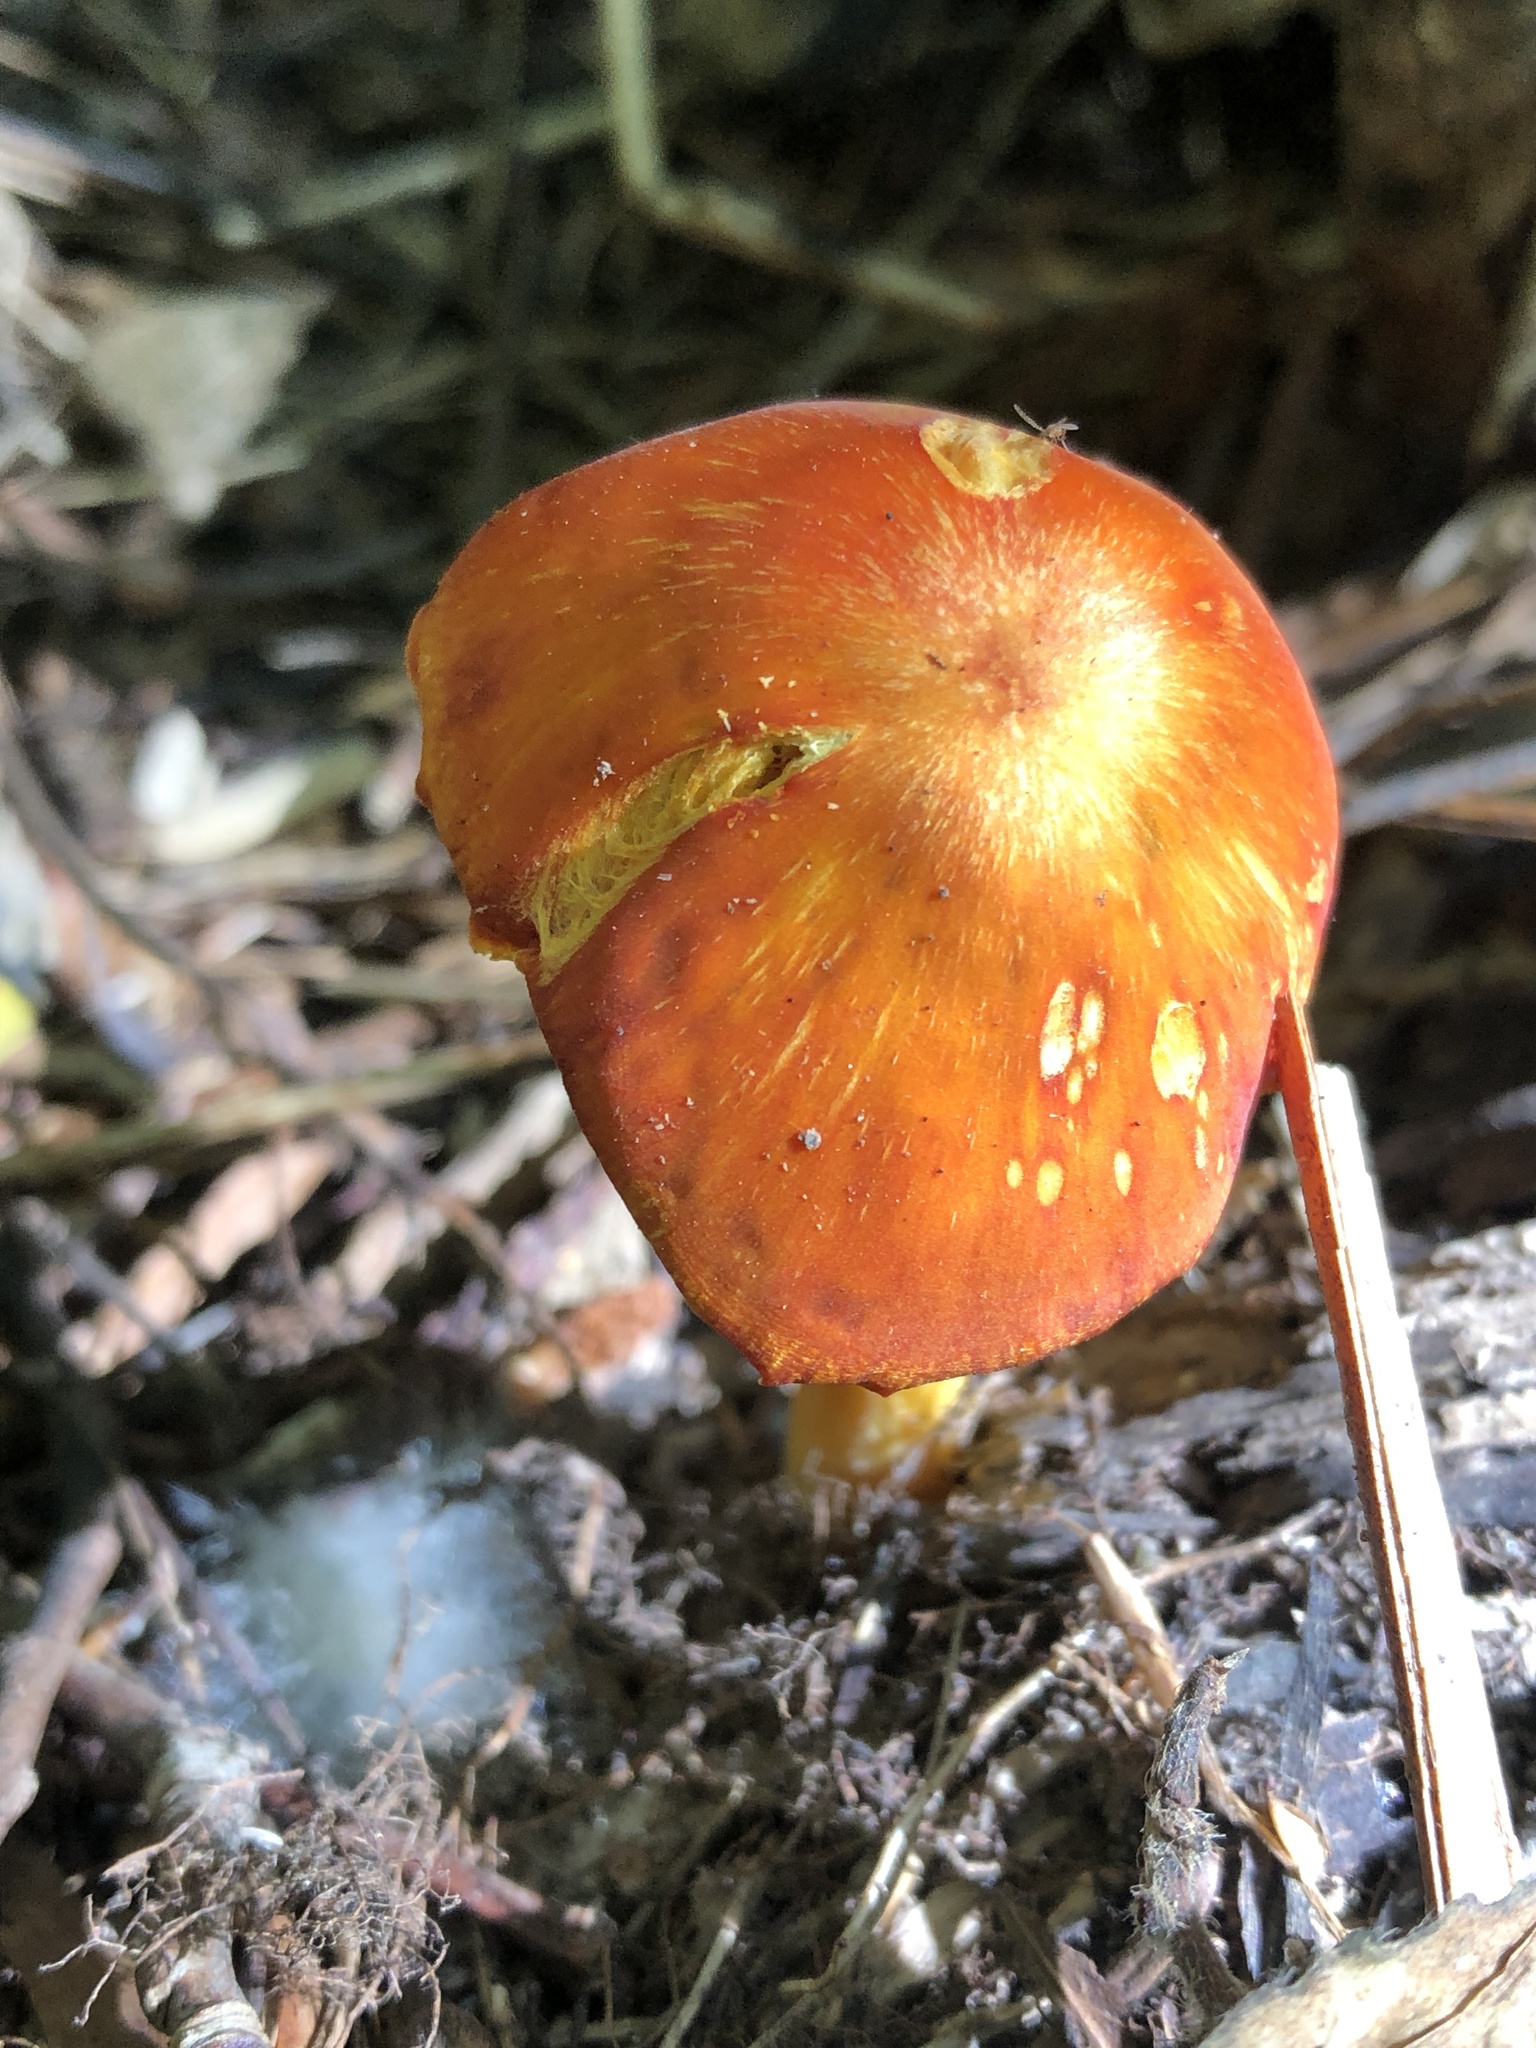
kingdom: Fungi
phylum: Basidiomycota
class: Agaricomycetes
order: Agaricales
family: Hygrophoraceae
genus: Hygrocybe
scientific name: Hygrocybe punicea
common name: Crimson waxcap
